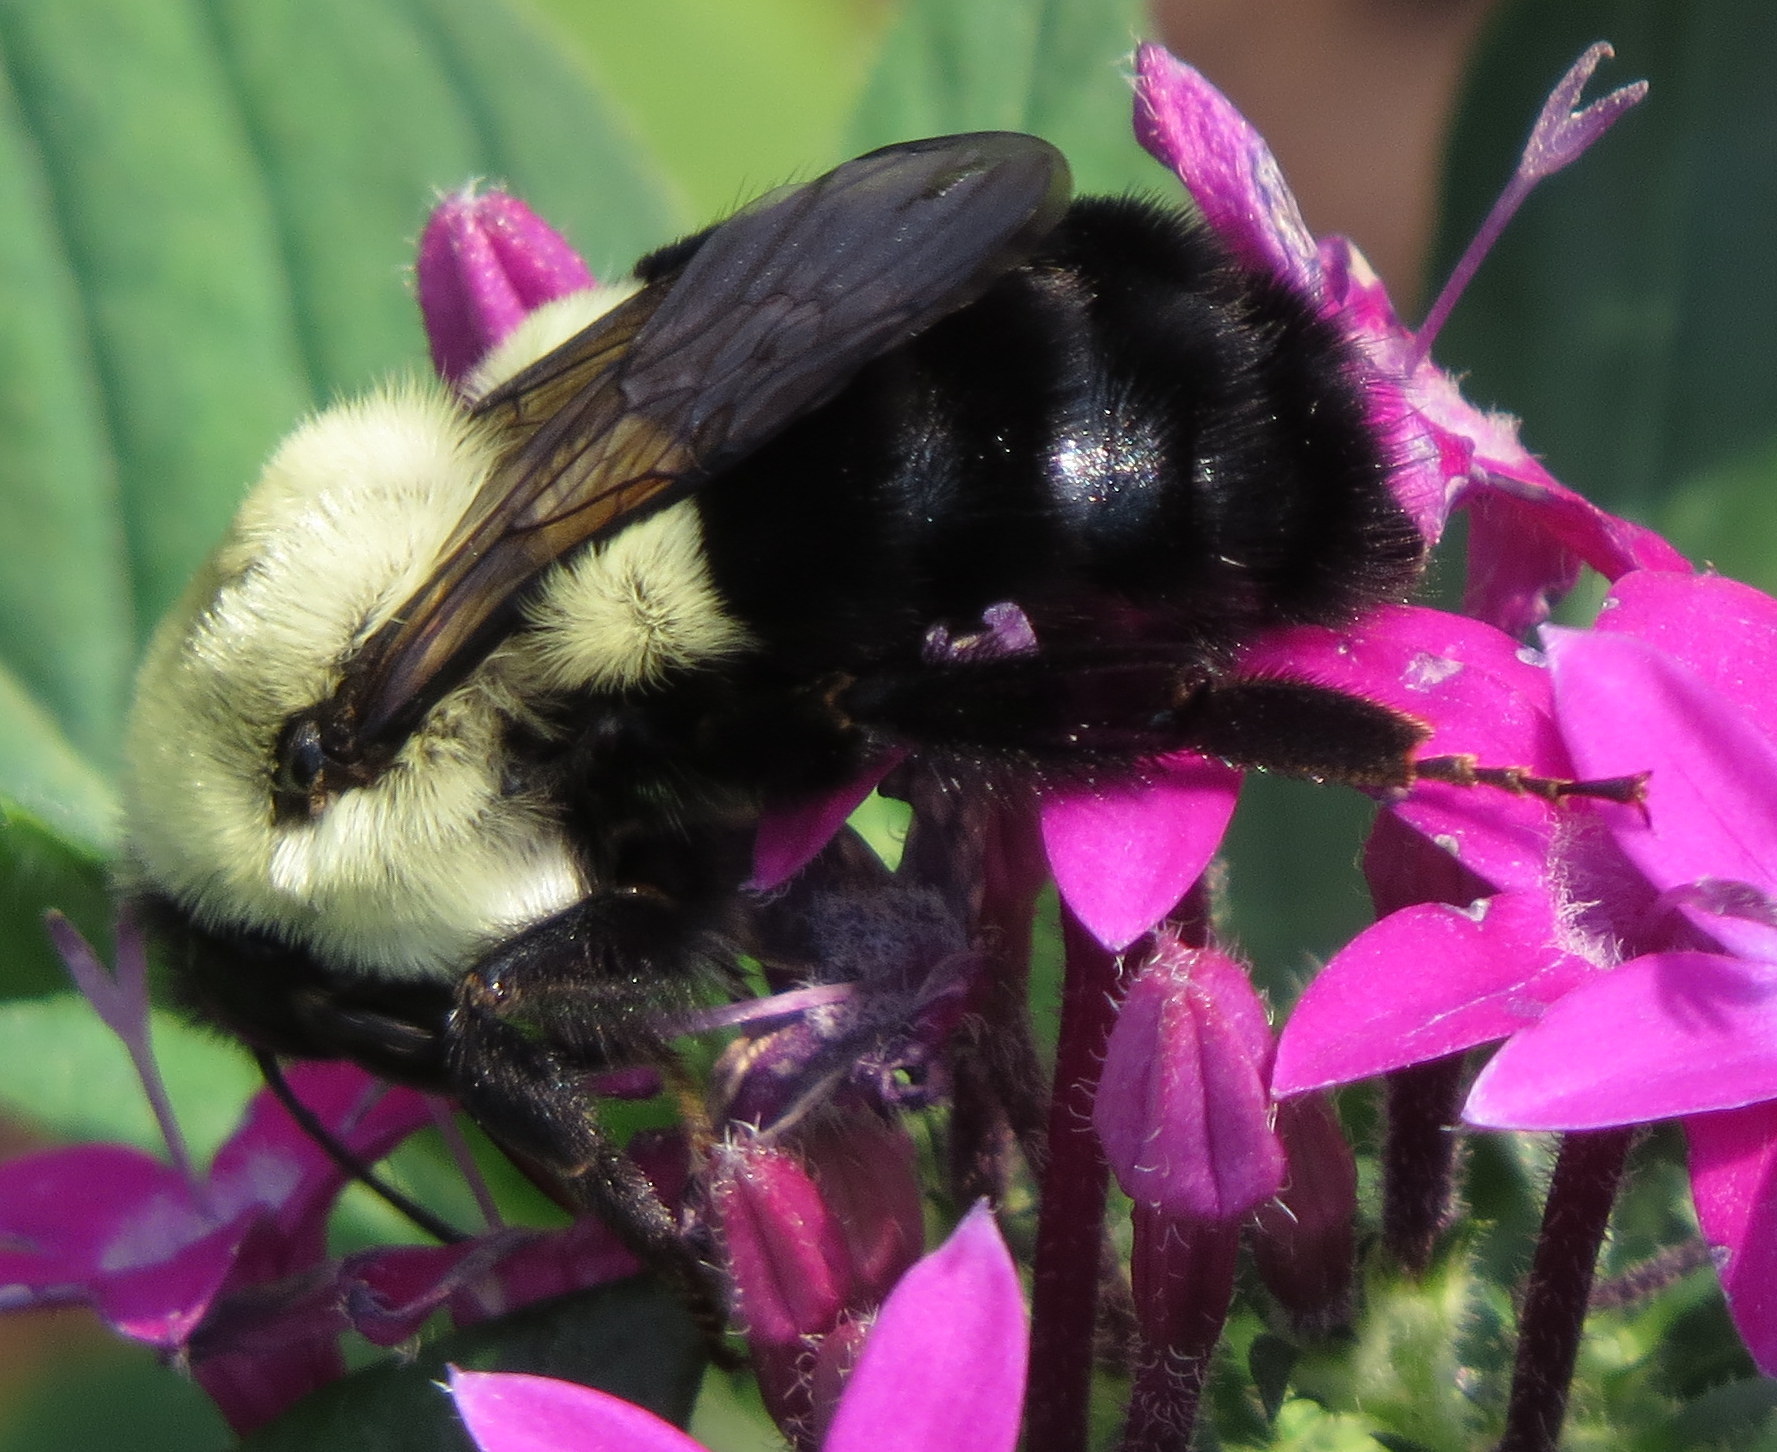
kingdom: Animalia
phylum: Arthropoda
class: Insecta
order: Hymenoptera
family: Apidae
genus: Bombus
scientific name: Bombus impatiens
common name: Common eastern bumble bee
